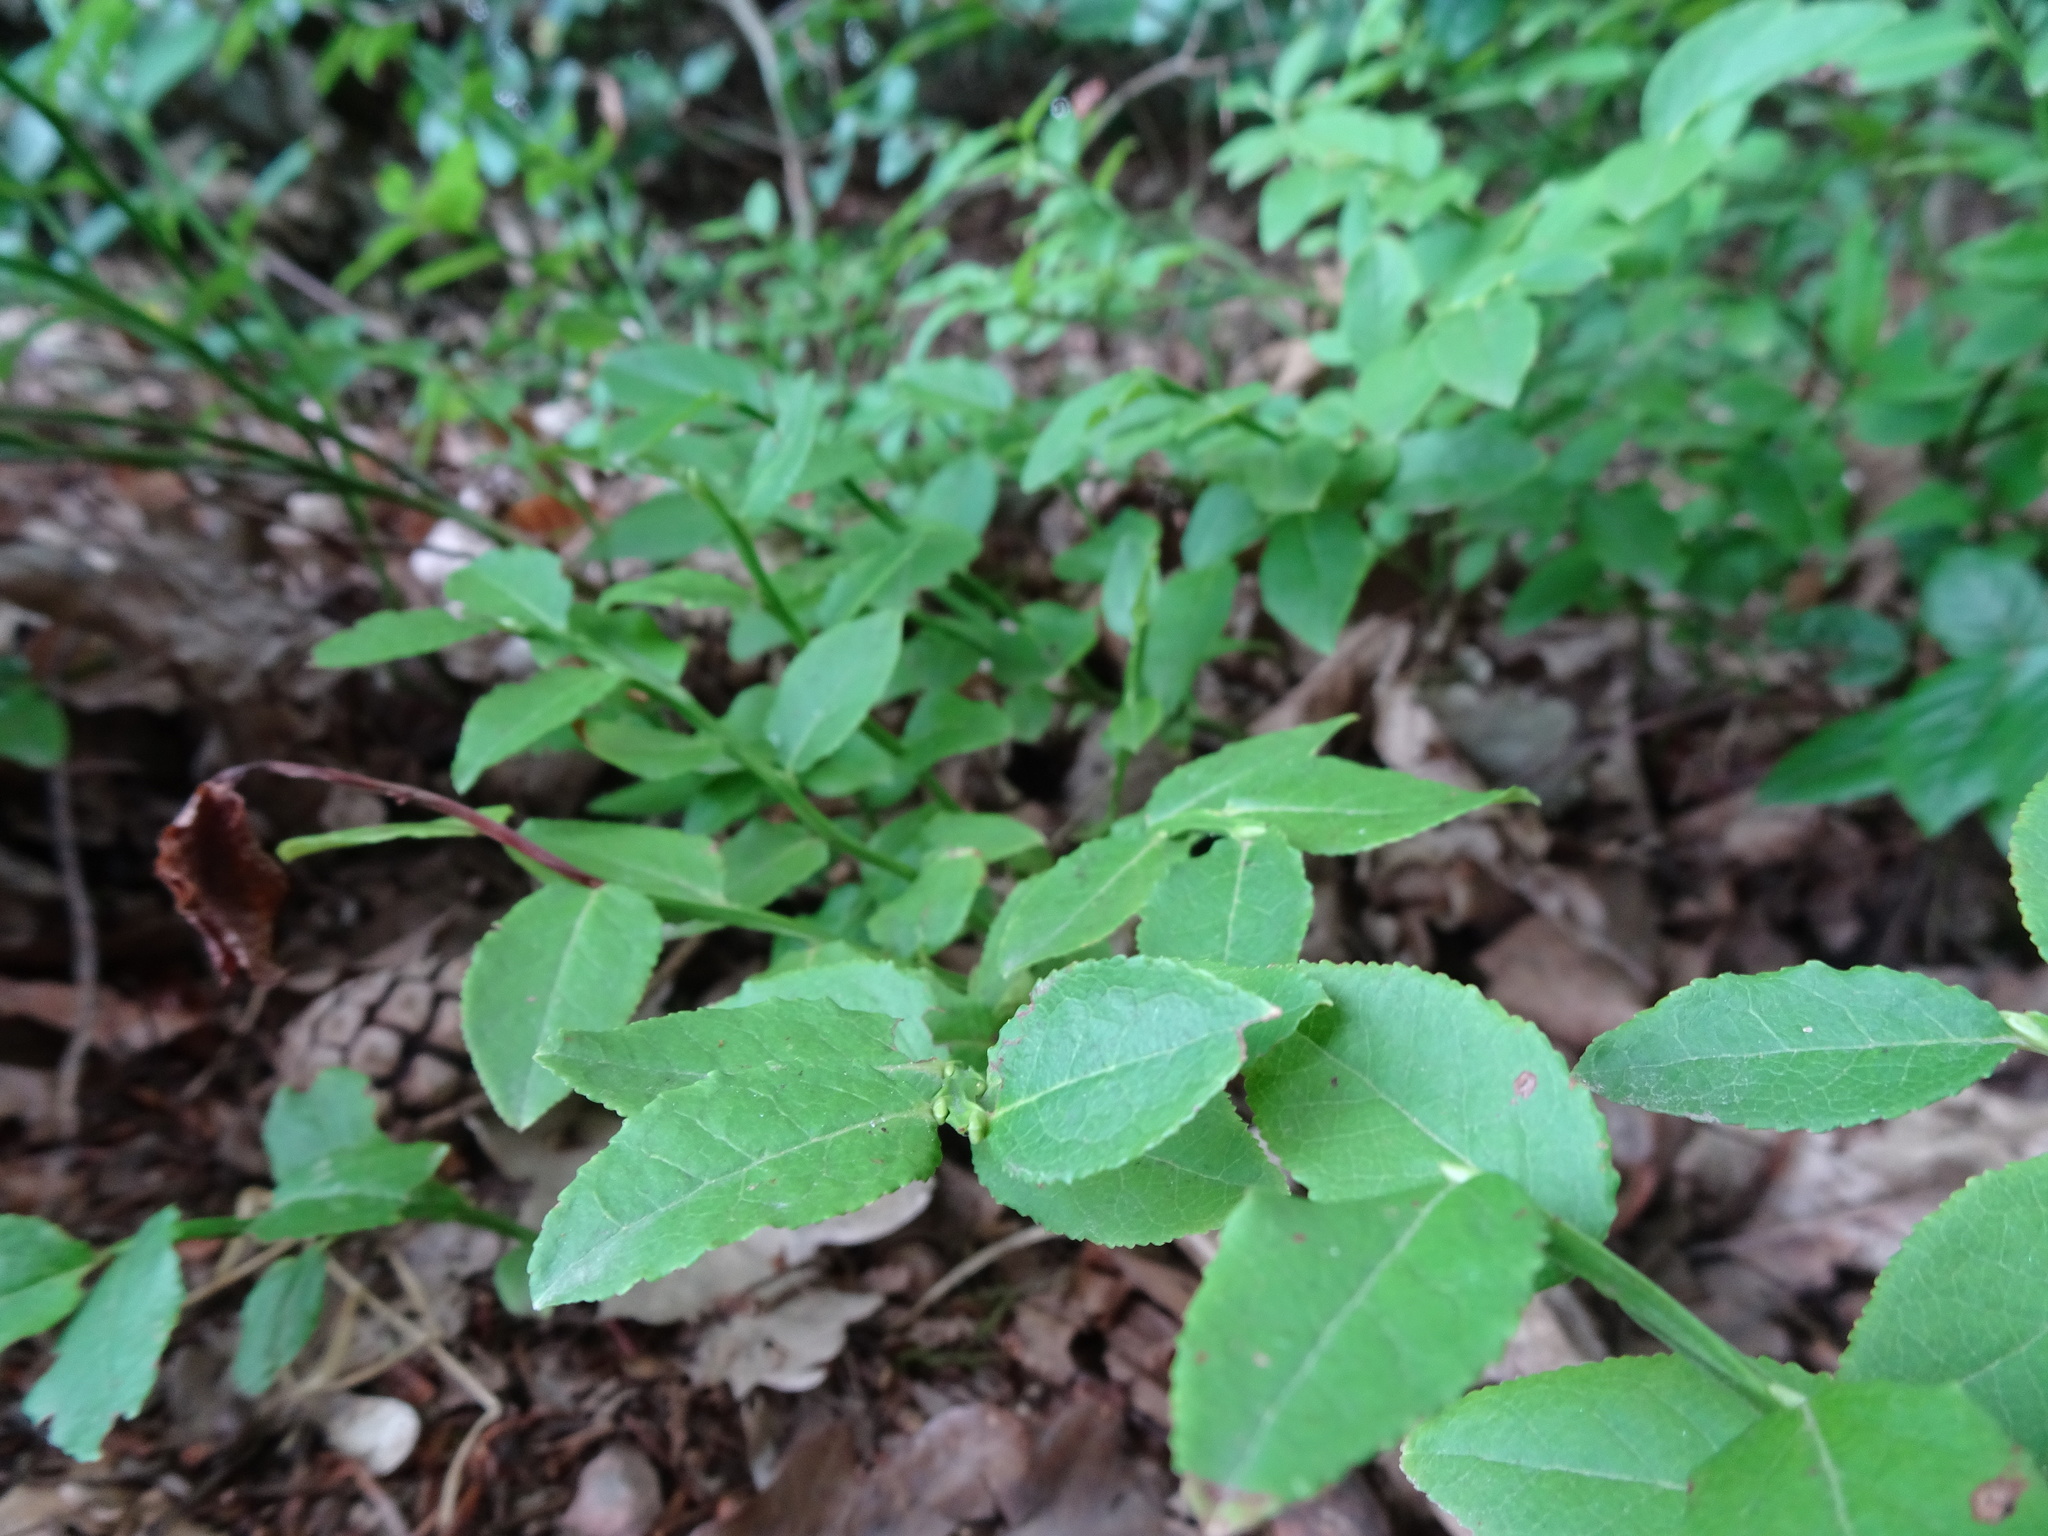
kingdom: Plantae
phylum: Tracheophyta
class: Magnoliopsida
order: Ericales
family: Ericaceae
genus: Vaccinium
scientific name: Vaccinium myrtillus
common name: Bilberry
